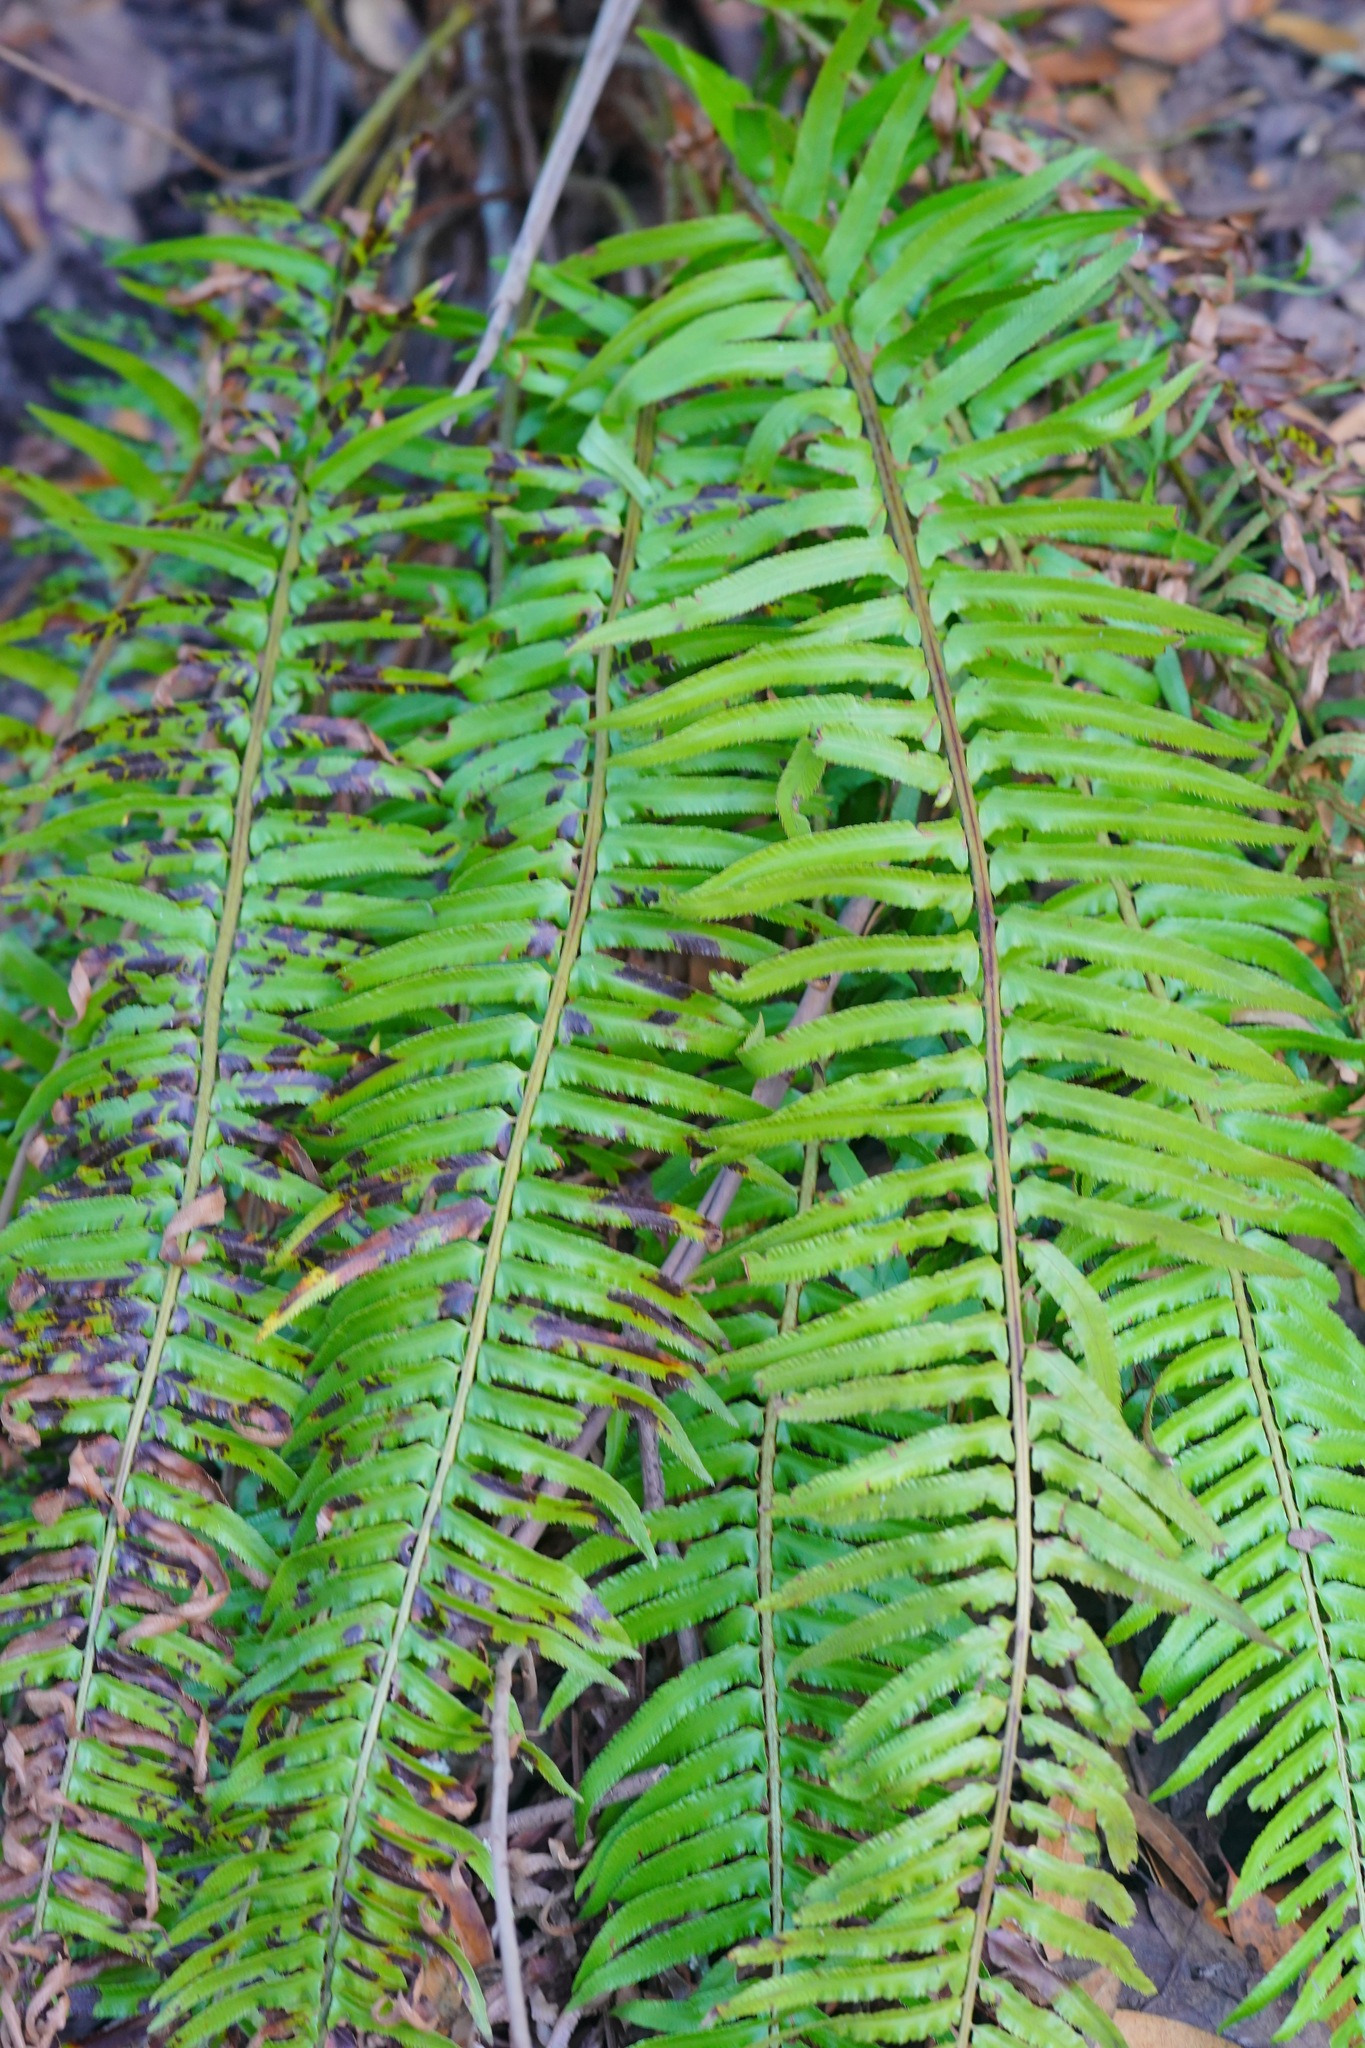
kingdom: Plantae
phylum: Tracheophyta
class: Polypodiopsida
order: Polypodiales
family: Dryopteridaceae
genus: Polystichum
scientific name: Polystichum munitum
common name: Western sword-fern
